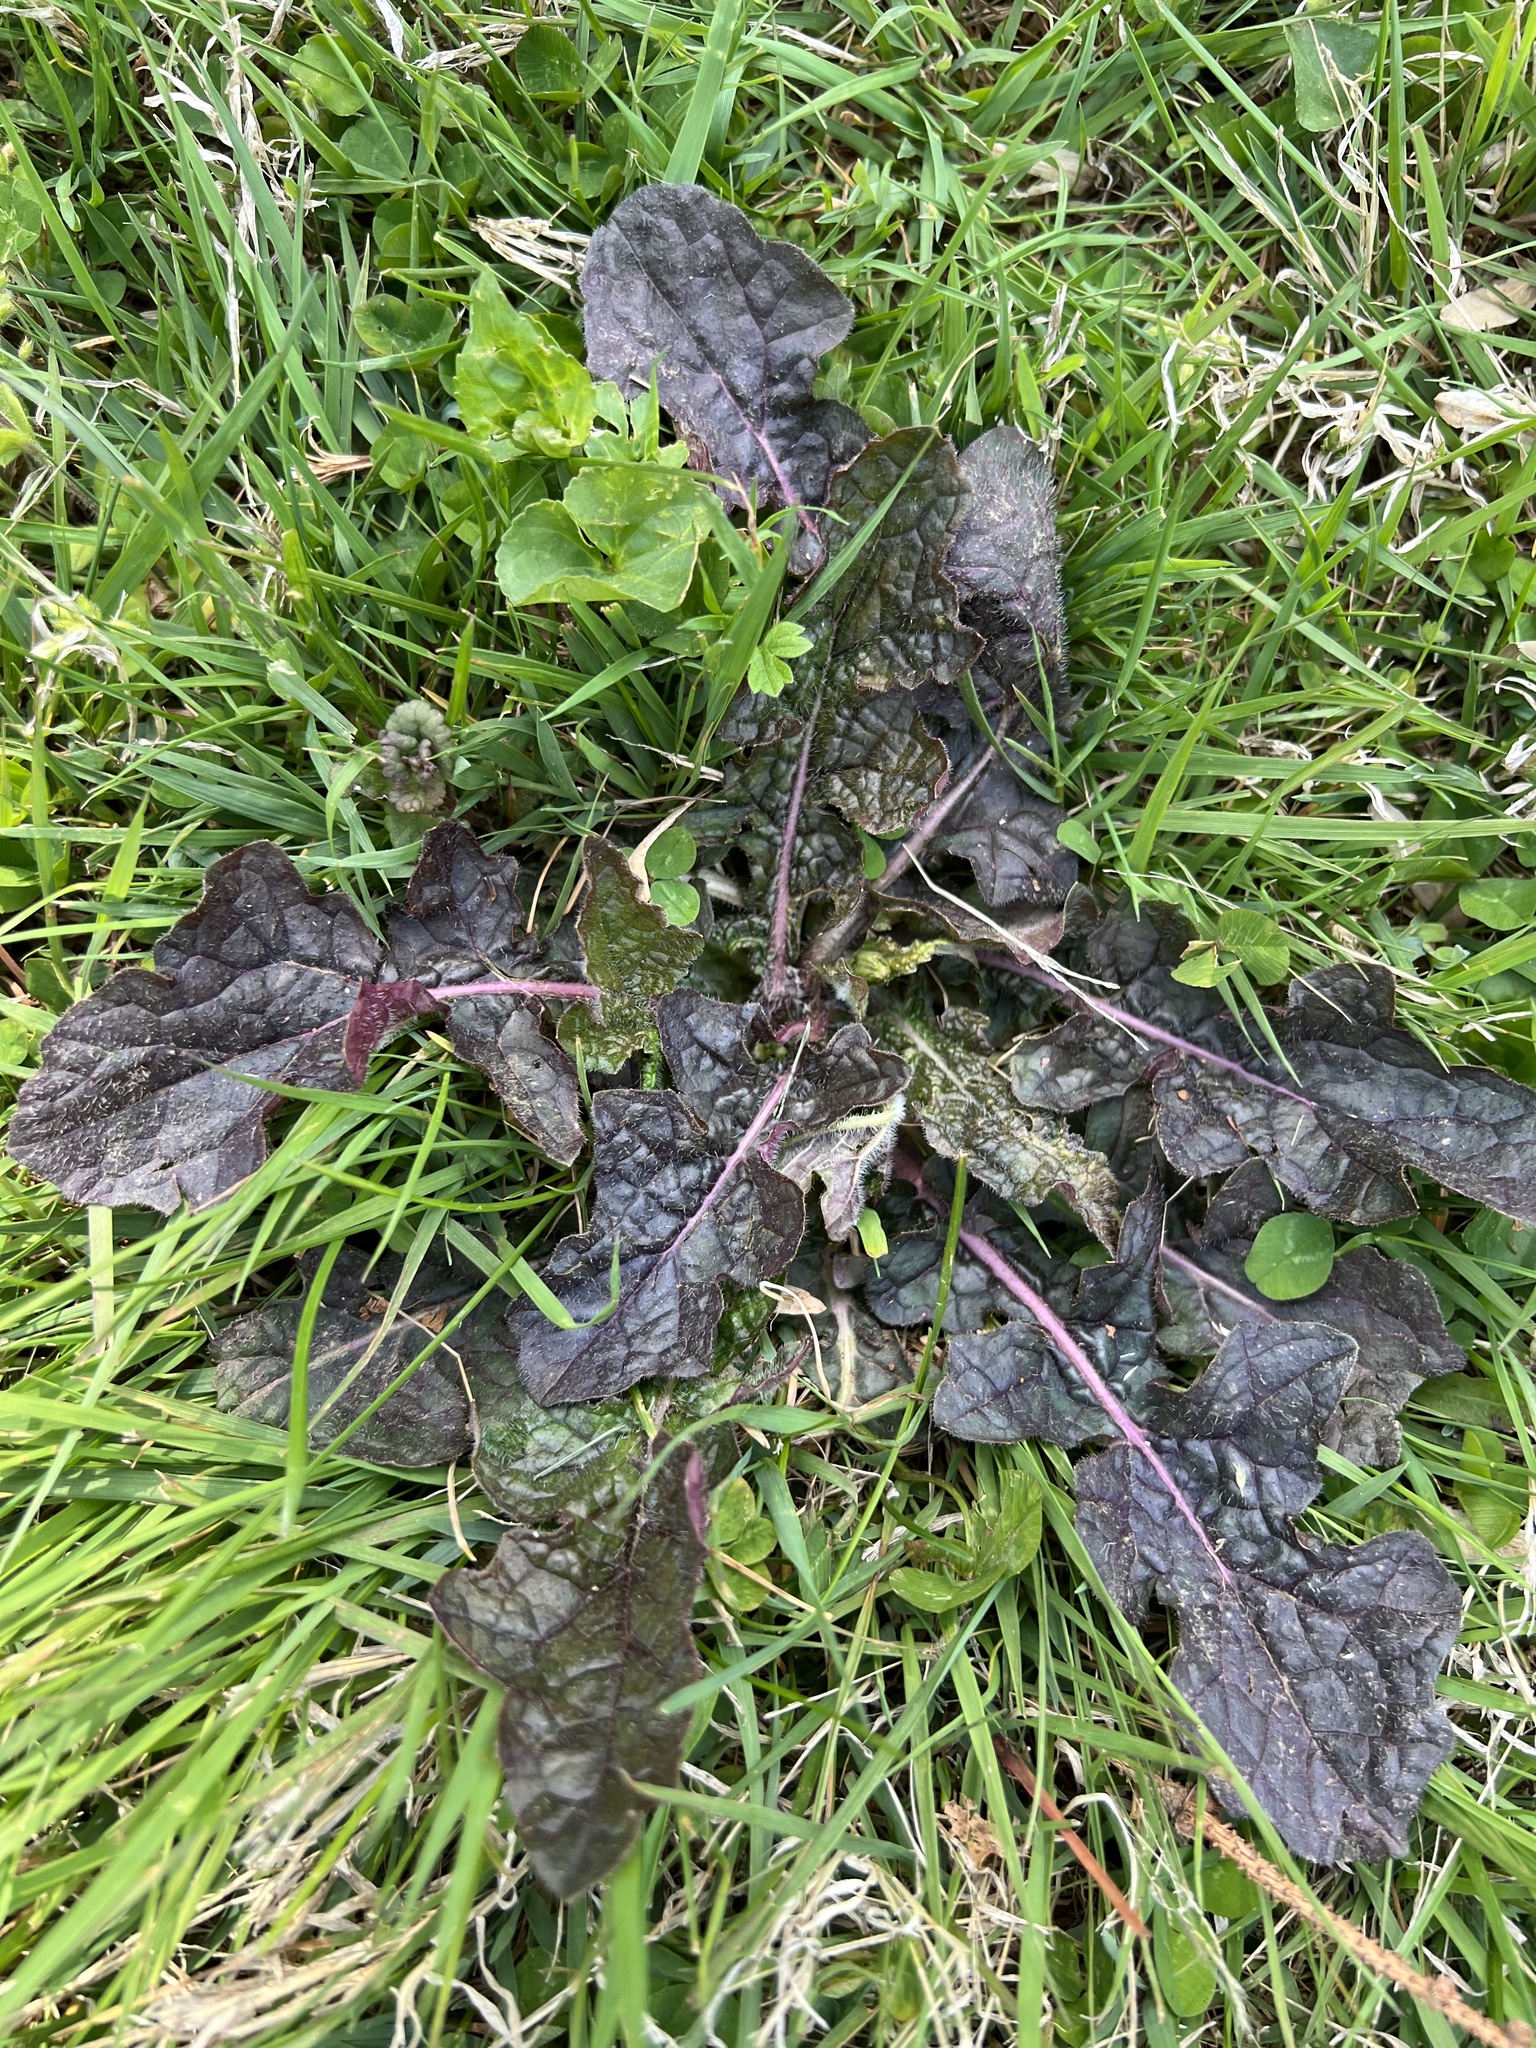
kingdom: Plantae
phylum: Tracheophyta
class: Magnoliopsida
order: Lamiales
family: Lamiaceae
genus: Salvia
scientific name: Salvia lyrata
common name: Cancerweed
